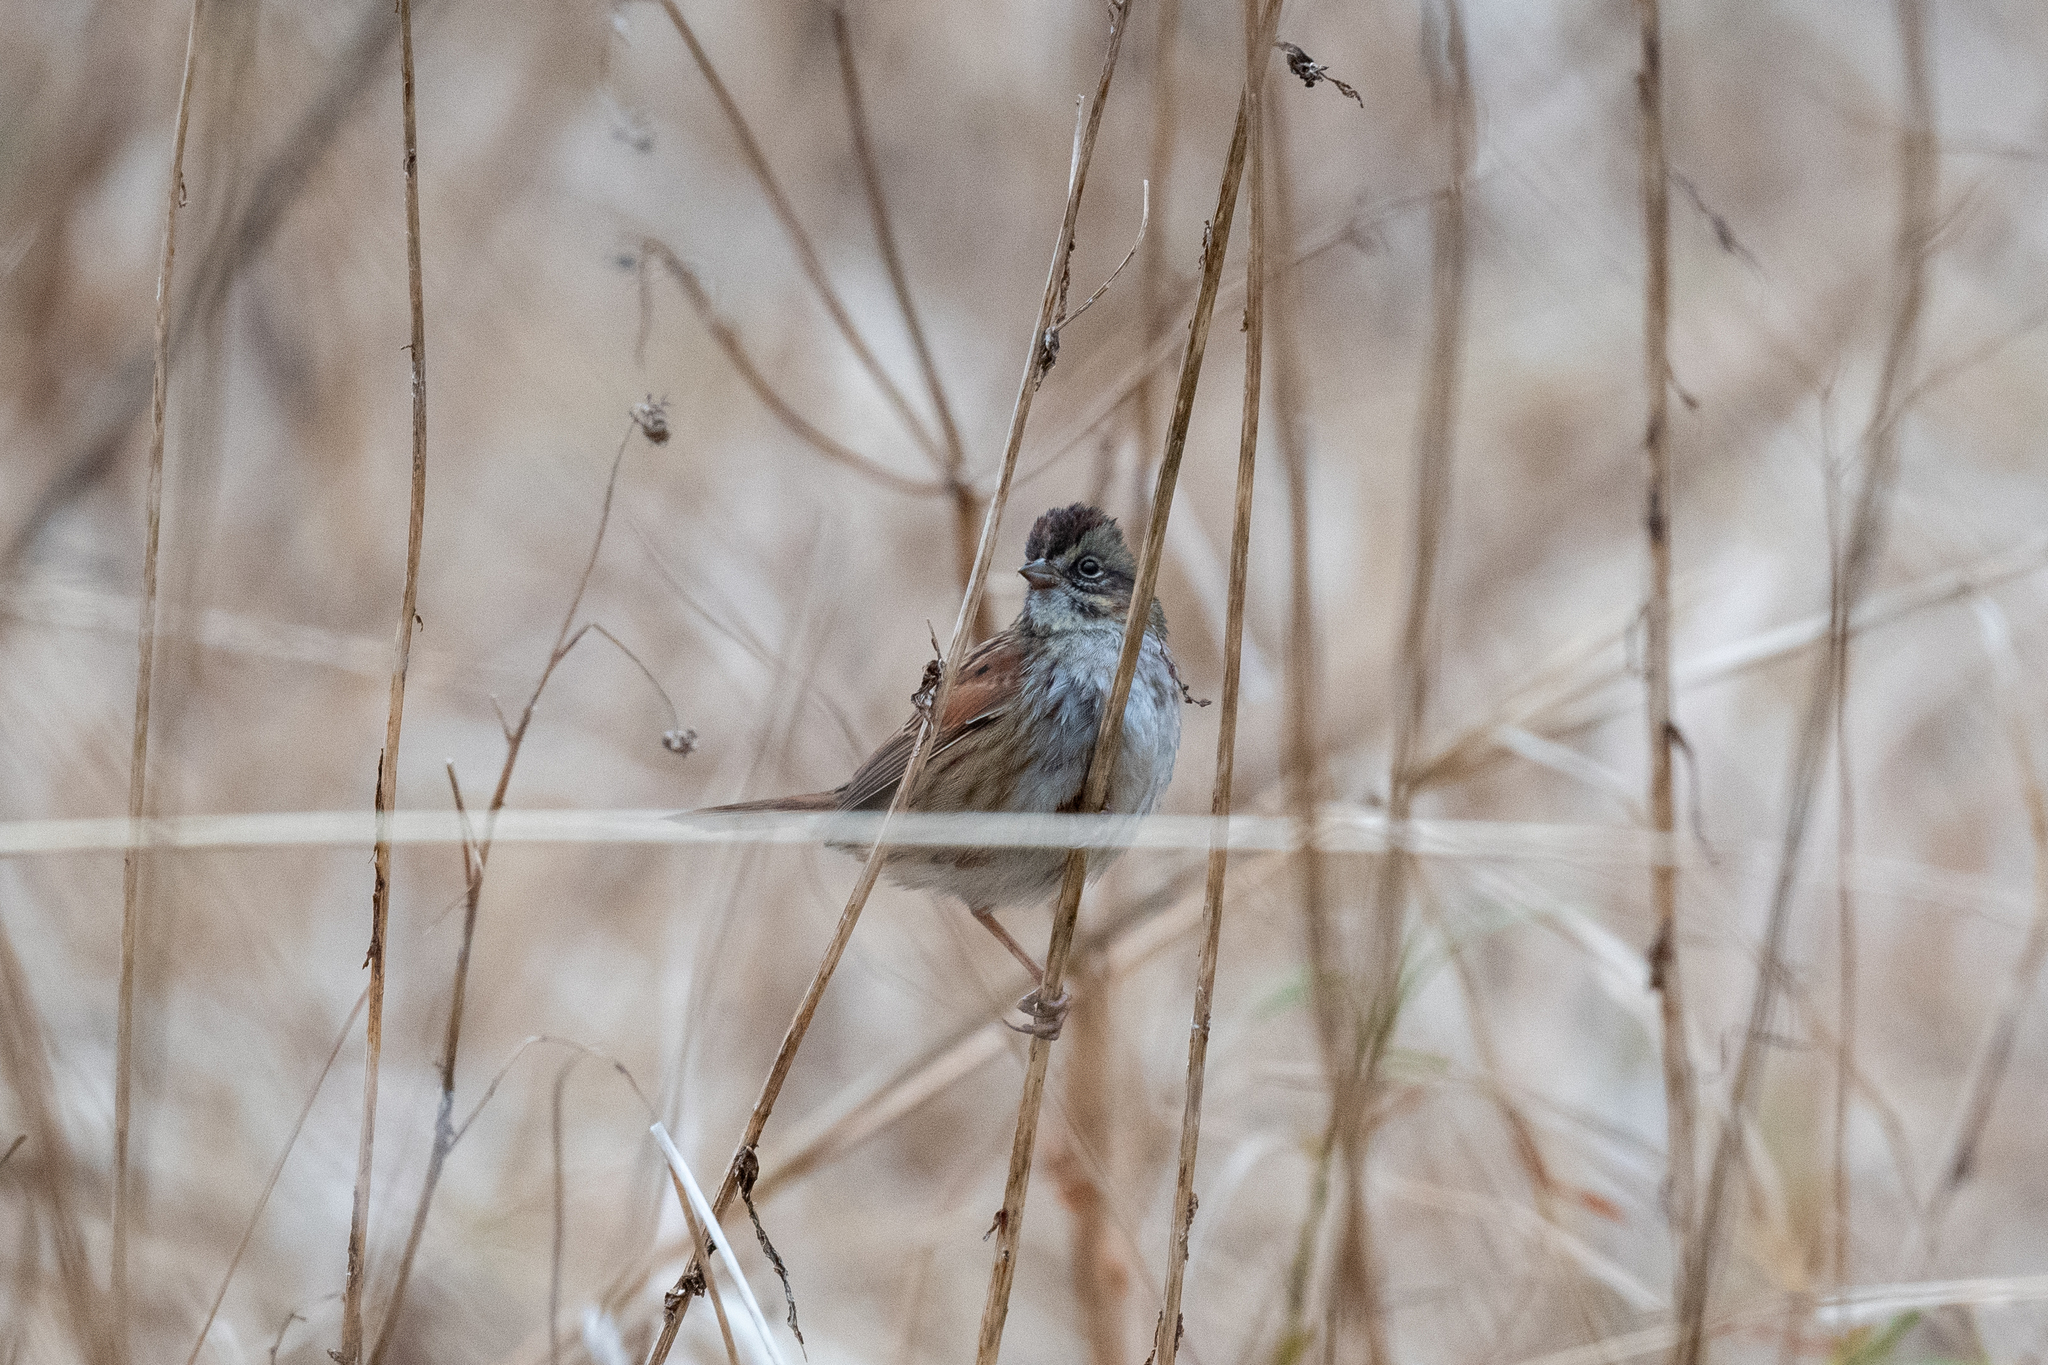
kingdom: Animalia
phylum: Chordata
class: Aves
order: Passeriformes
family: Passerellidae
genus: Melospiza
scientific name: Melospiza georgiana
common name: Swamp sparrow
